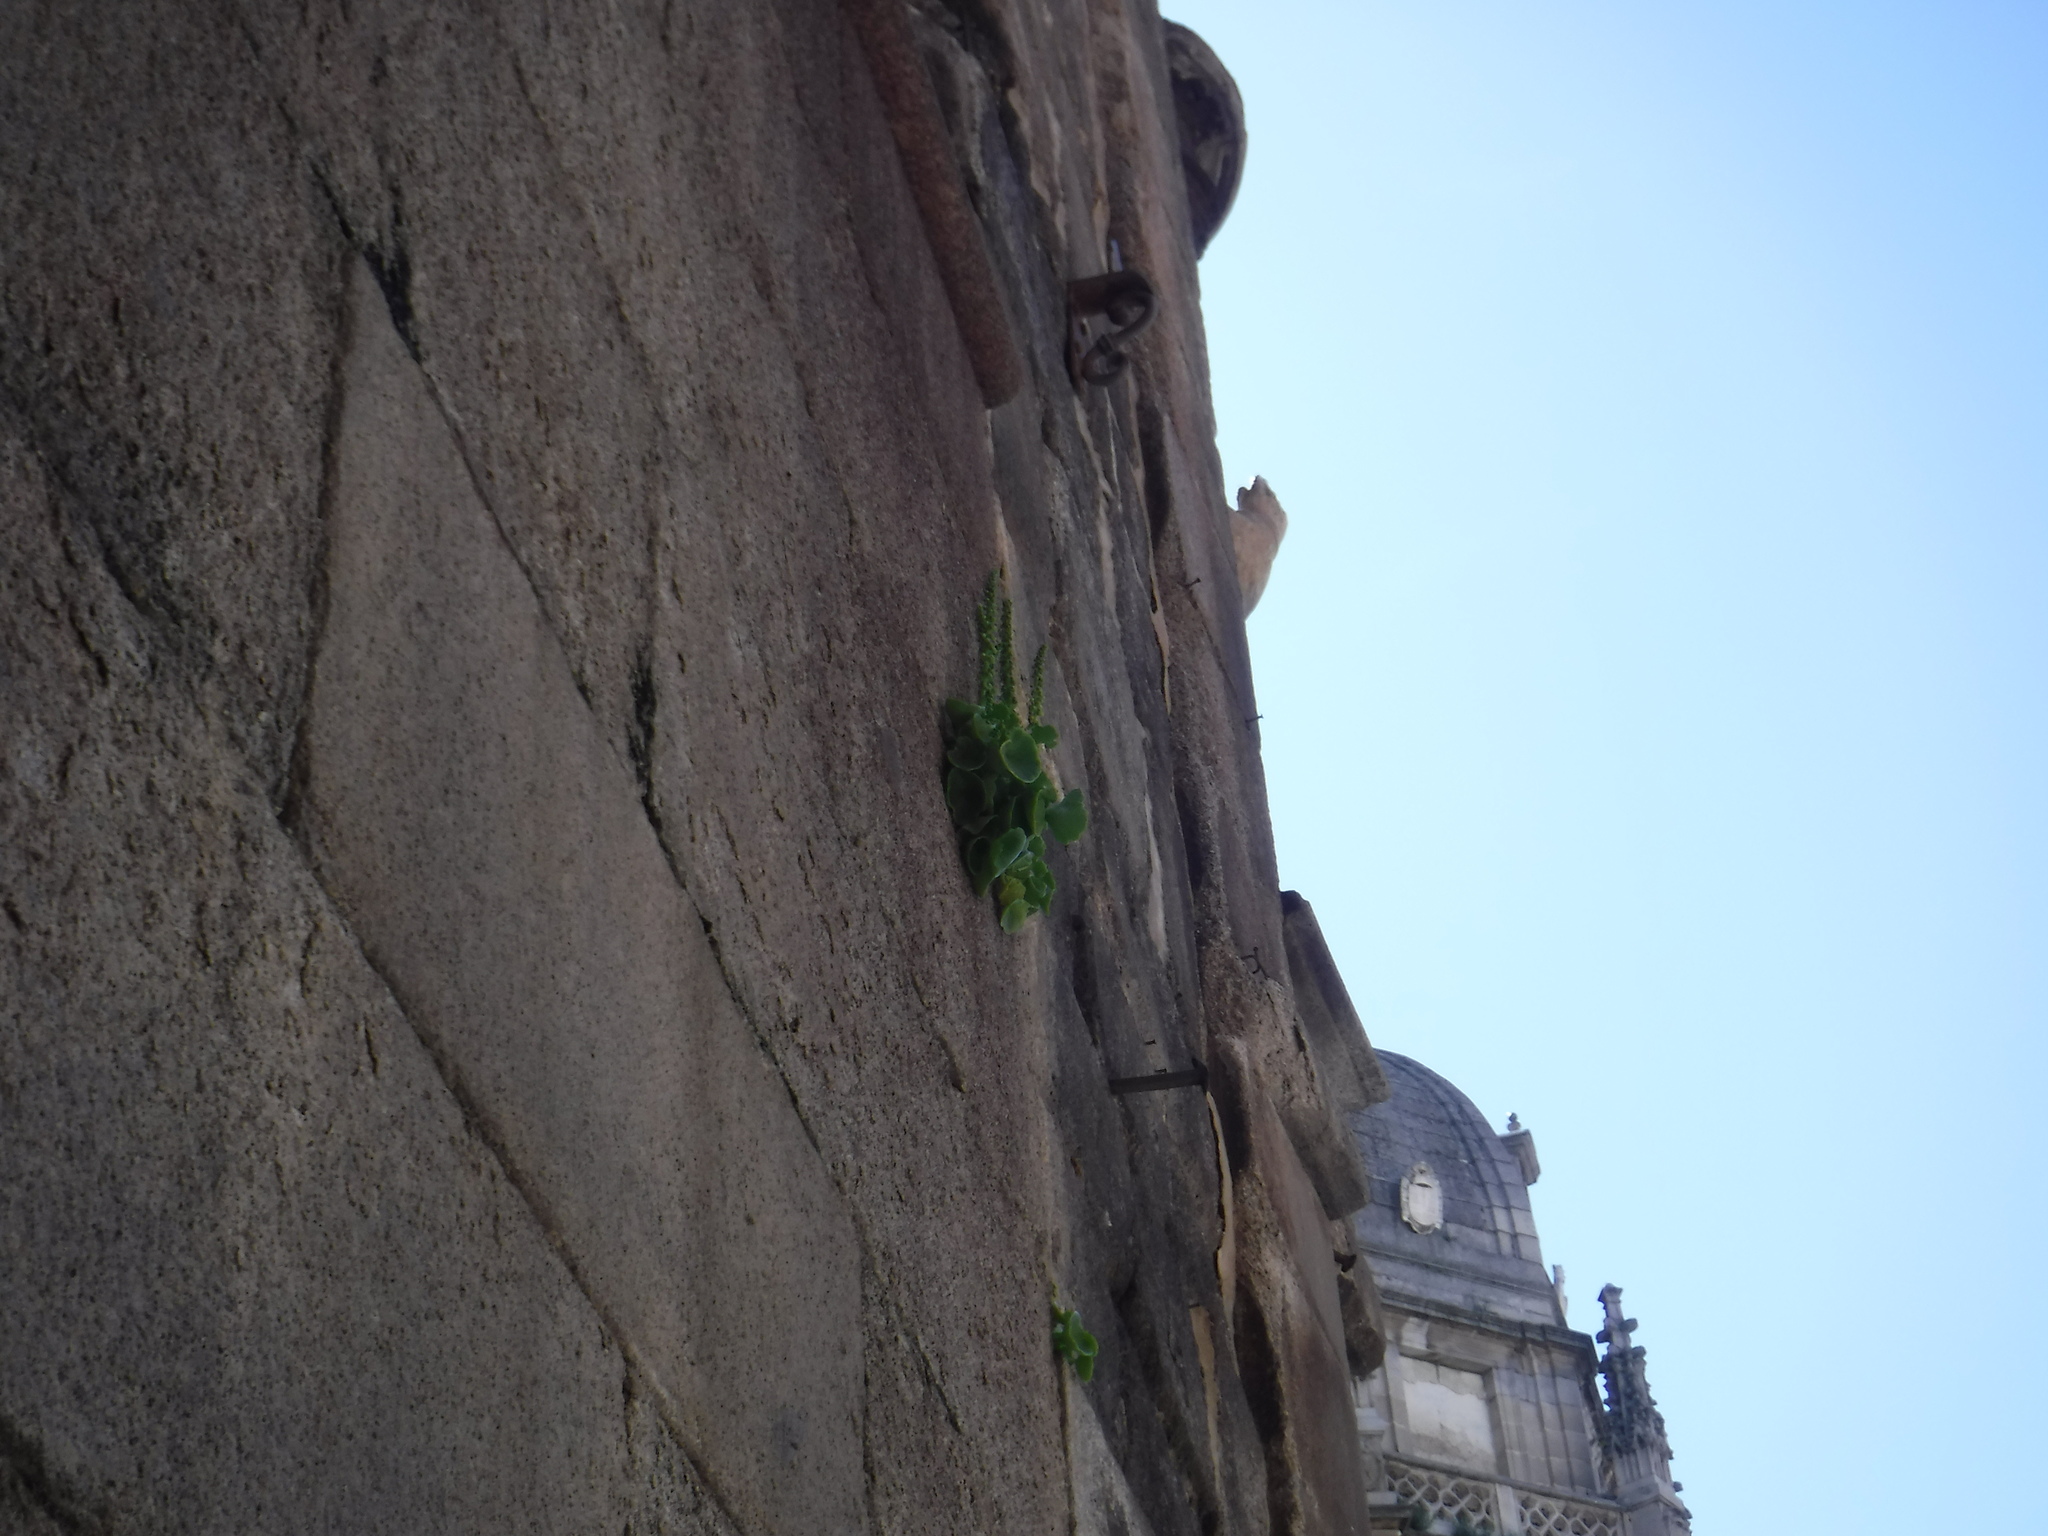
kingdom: Plantae
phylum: Tracheophyta
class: Magnoliopsida
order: Saxifragales
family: Crassulaceae
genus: Umbilicus
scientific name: Umbilicus rupestris
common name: Navelwort
